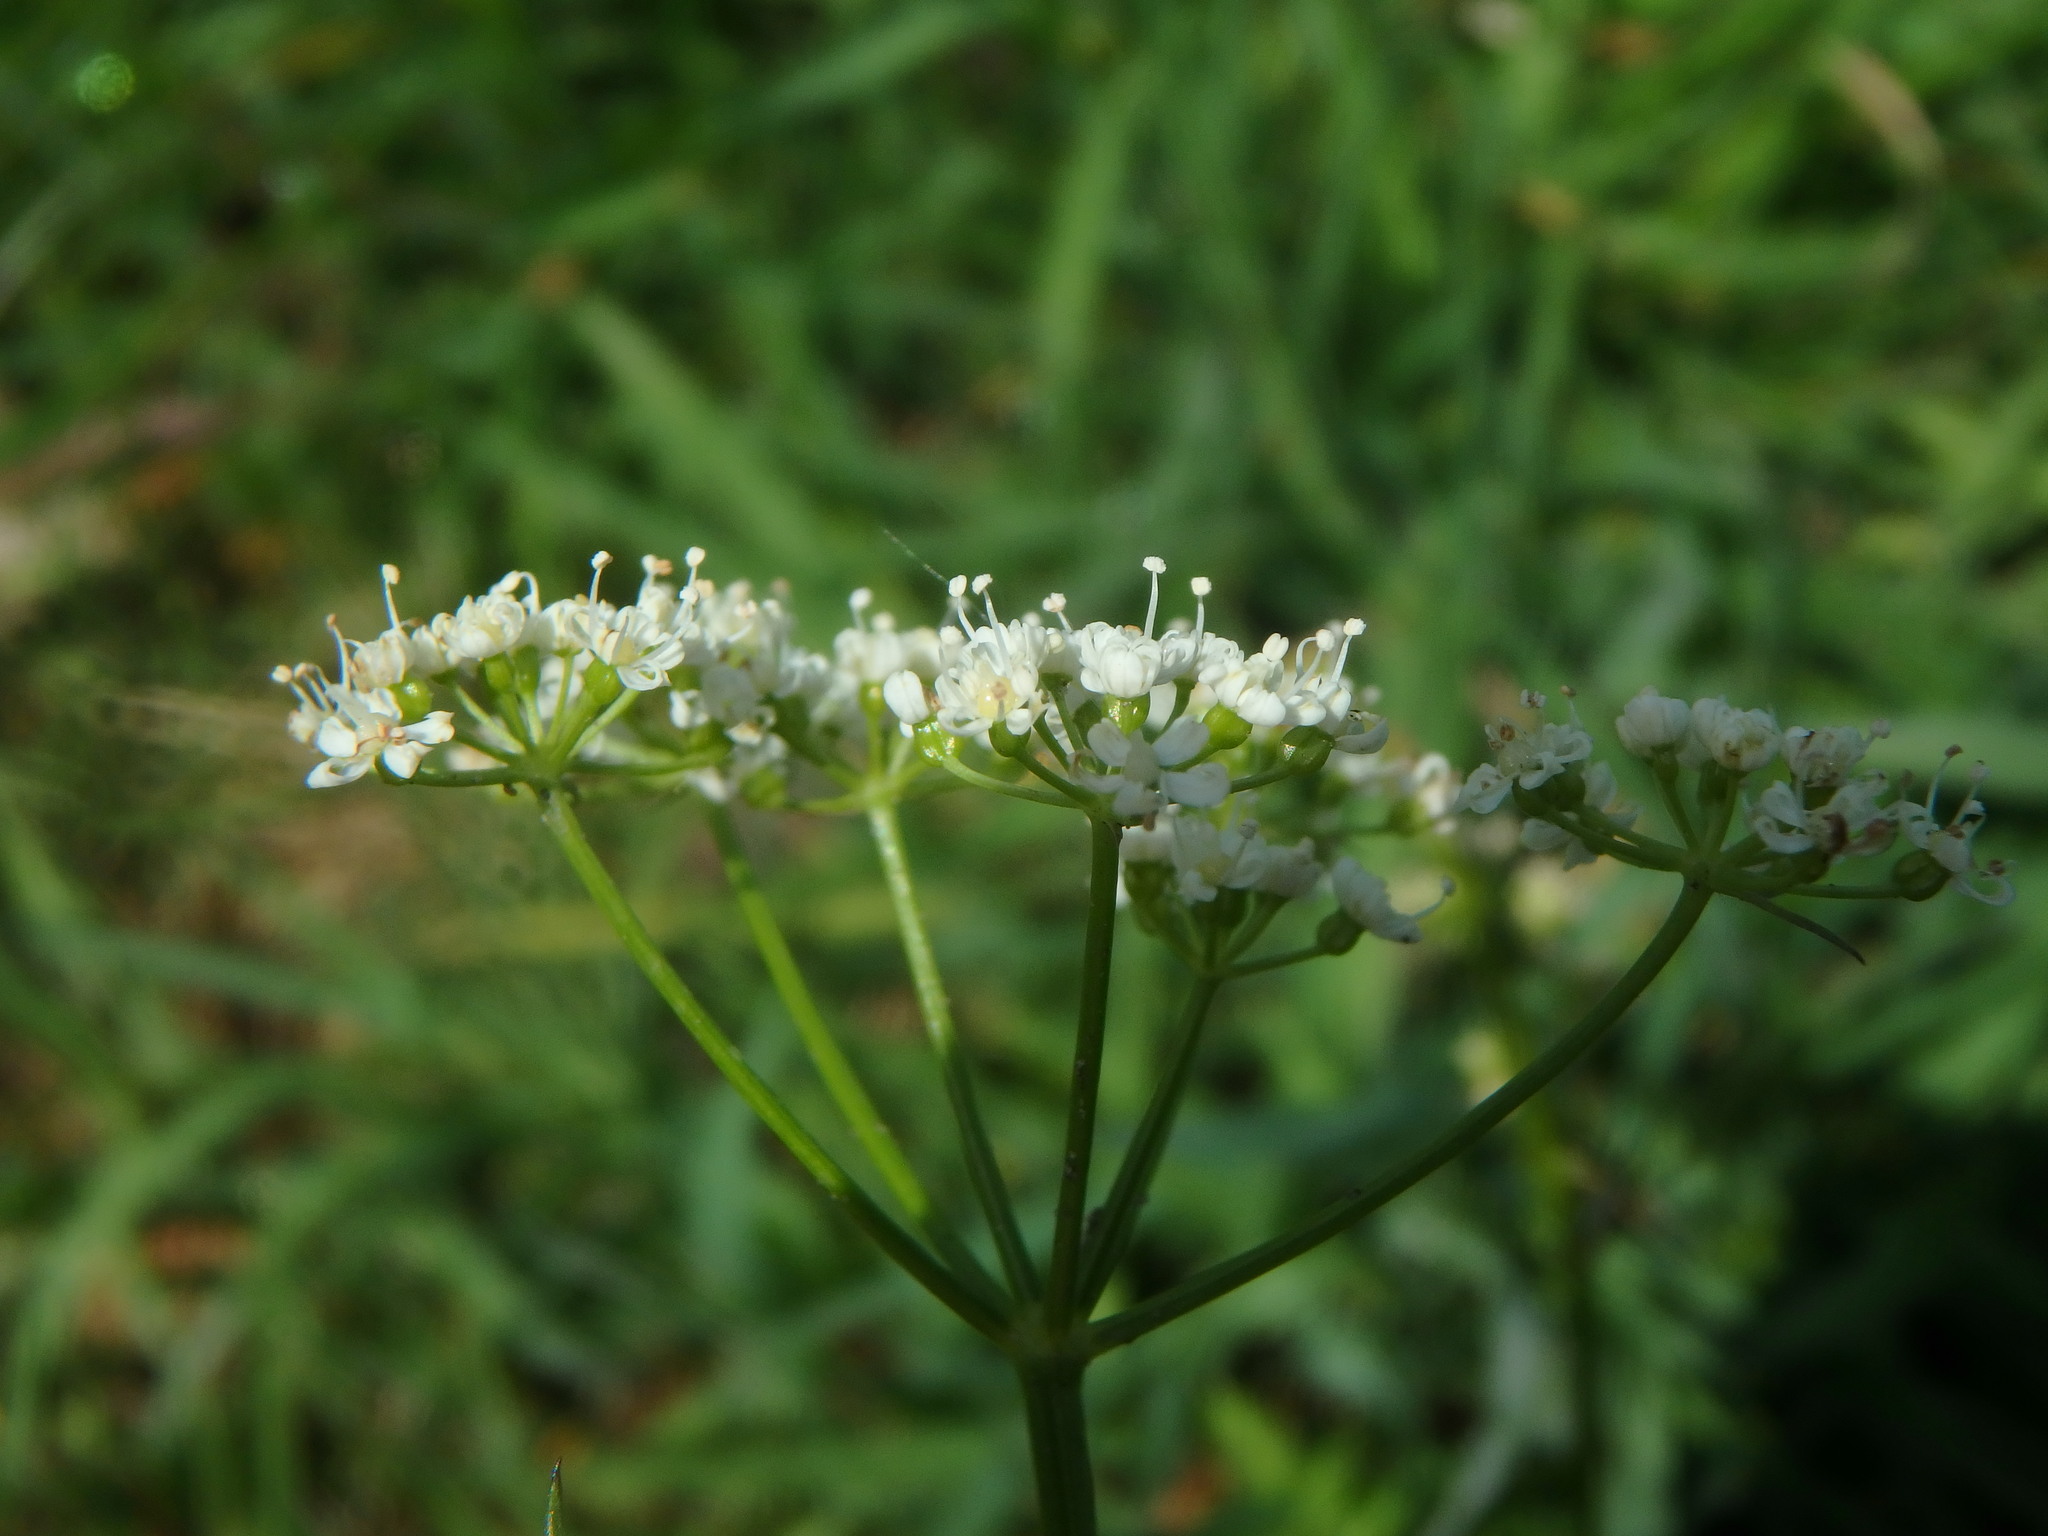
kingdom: Plantae
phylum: Tracheophyta
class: Magnoliopsida
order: Apiales
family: Apiaceae
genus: Conopodium
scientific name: Conopodium majus
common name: Pignut
